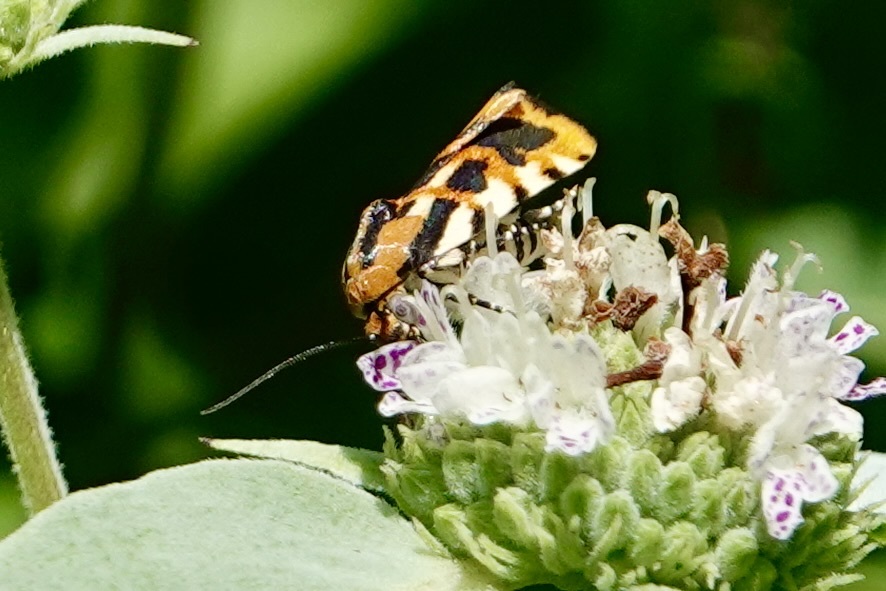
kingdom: Animalia
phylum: Arthropoda
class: Insecta
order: Lepidoptera
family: Noctuidae
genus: Acontia
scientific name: Acontia leo
